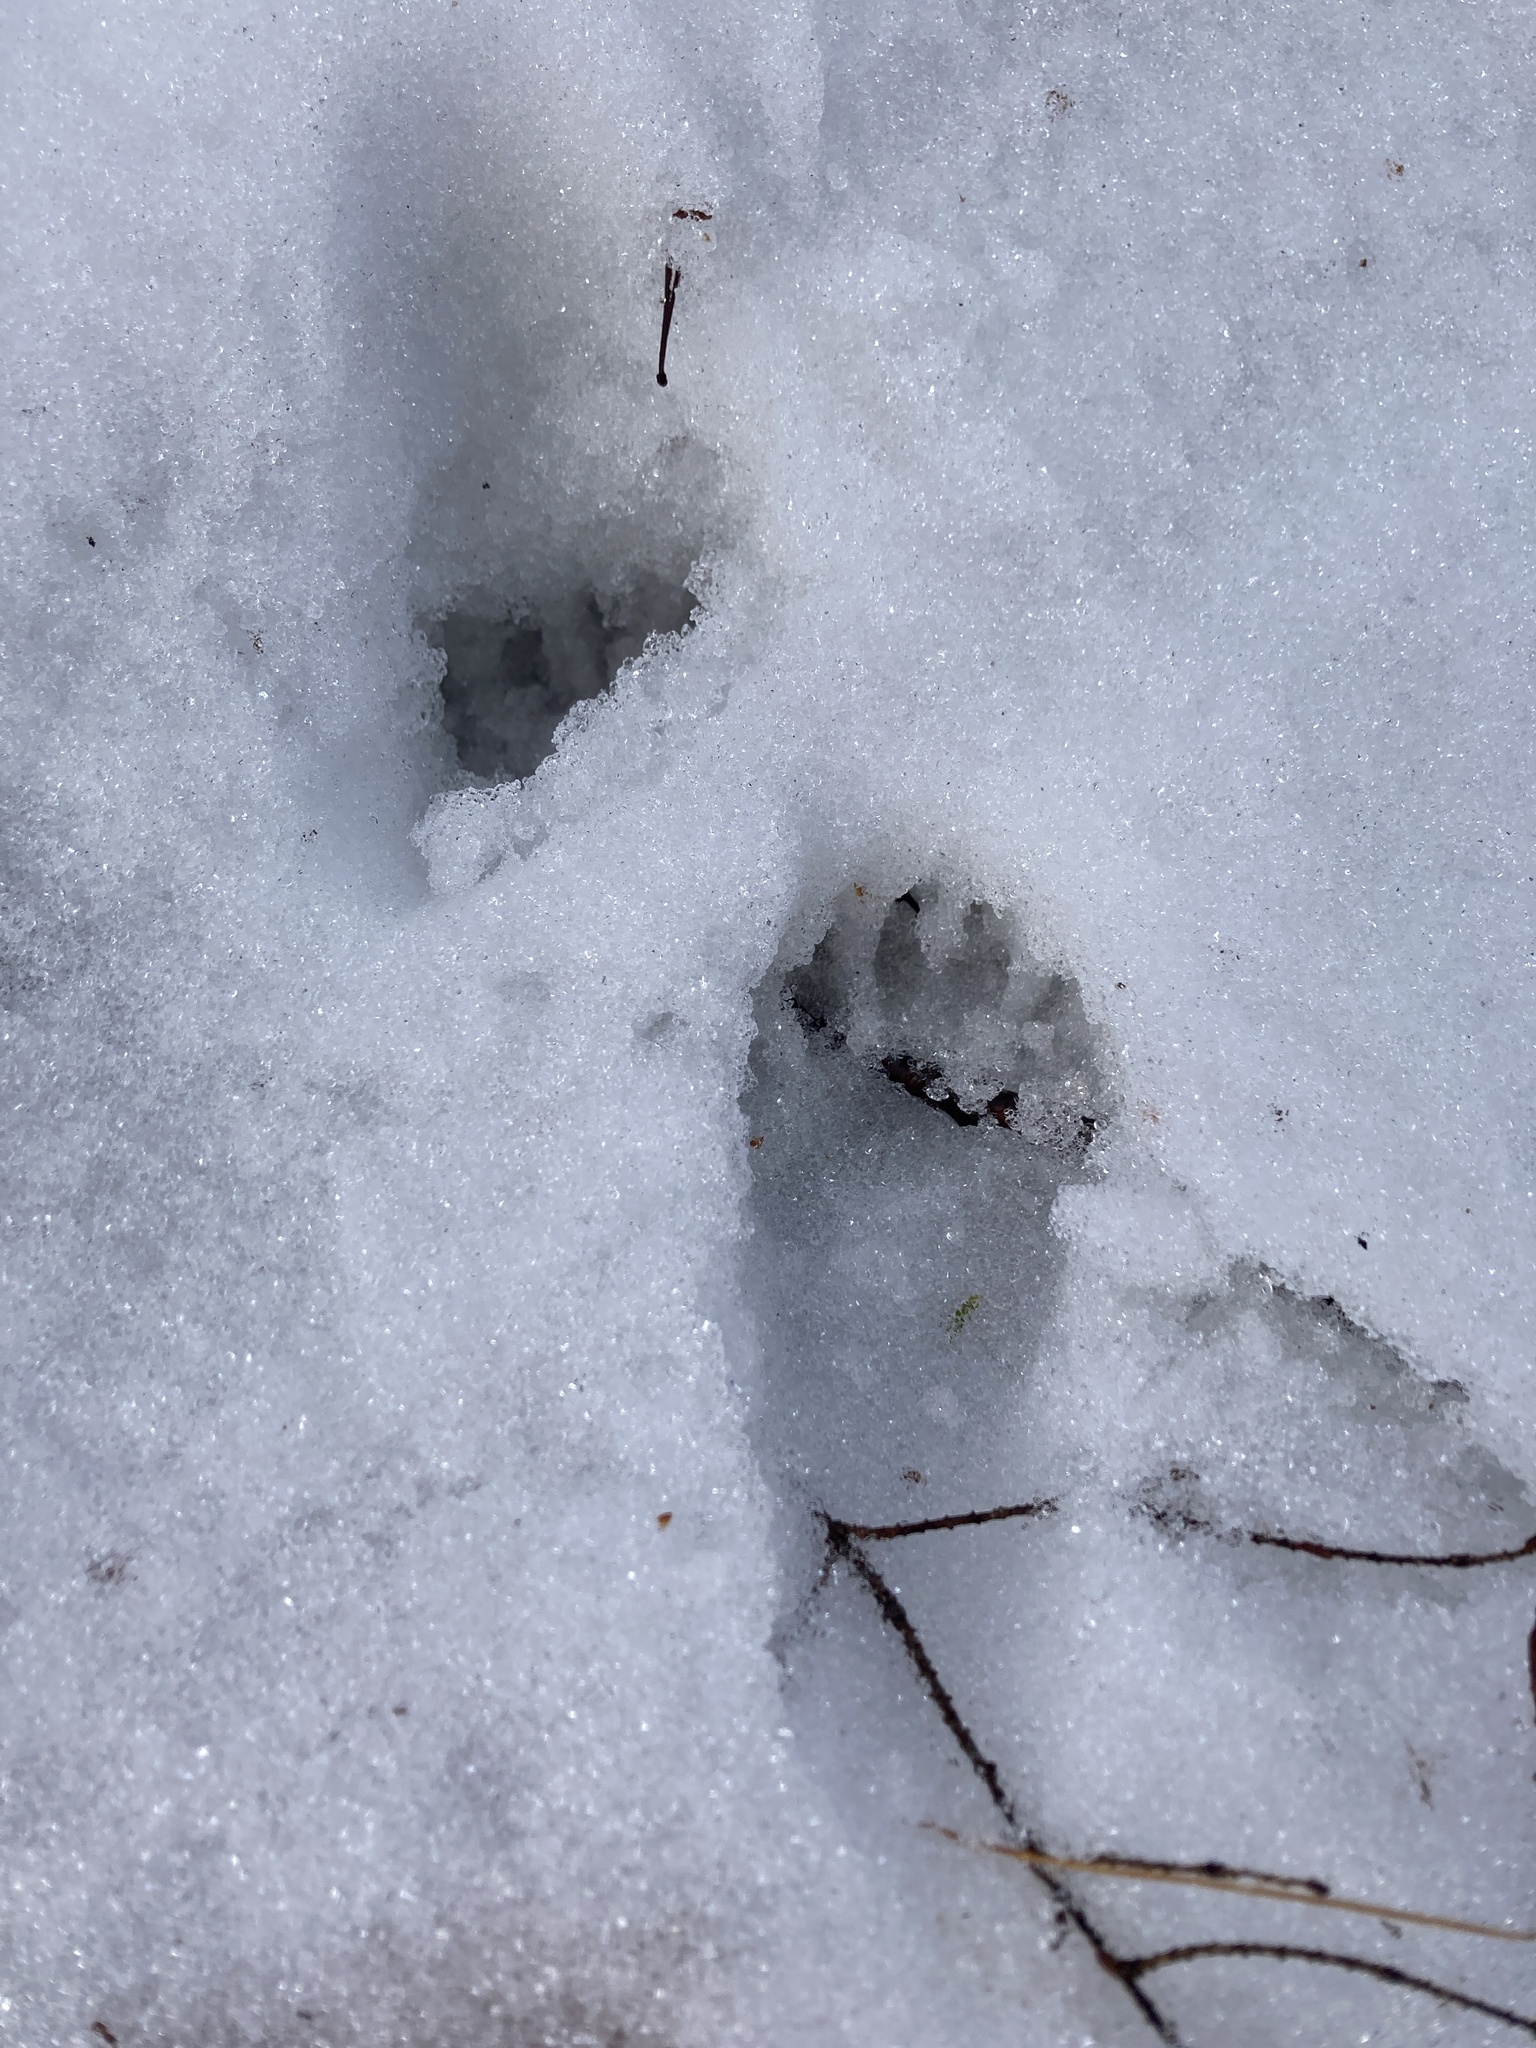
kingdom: Animalia
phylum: Chordata
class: Mammalia
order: Carnivora
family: Procyonidae
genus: Procyon
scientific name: Procyon lotor
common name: Raccoon
